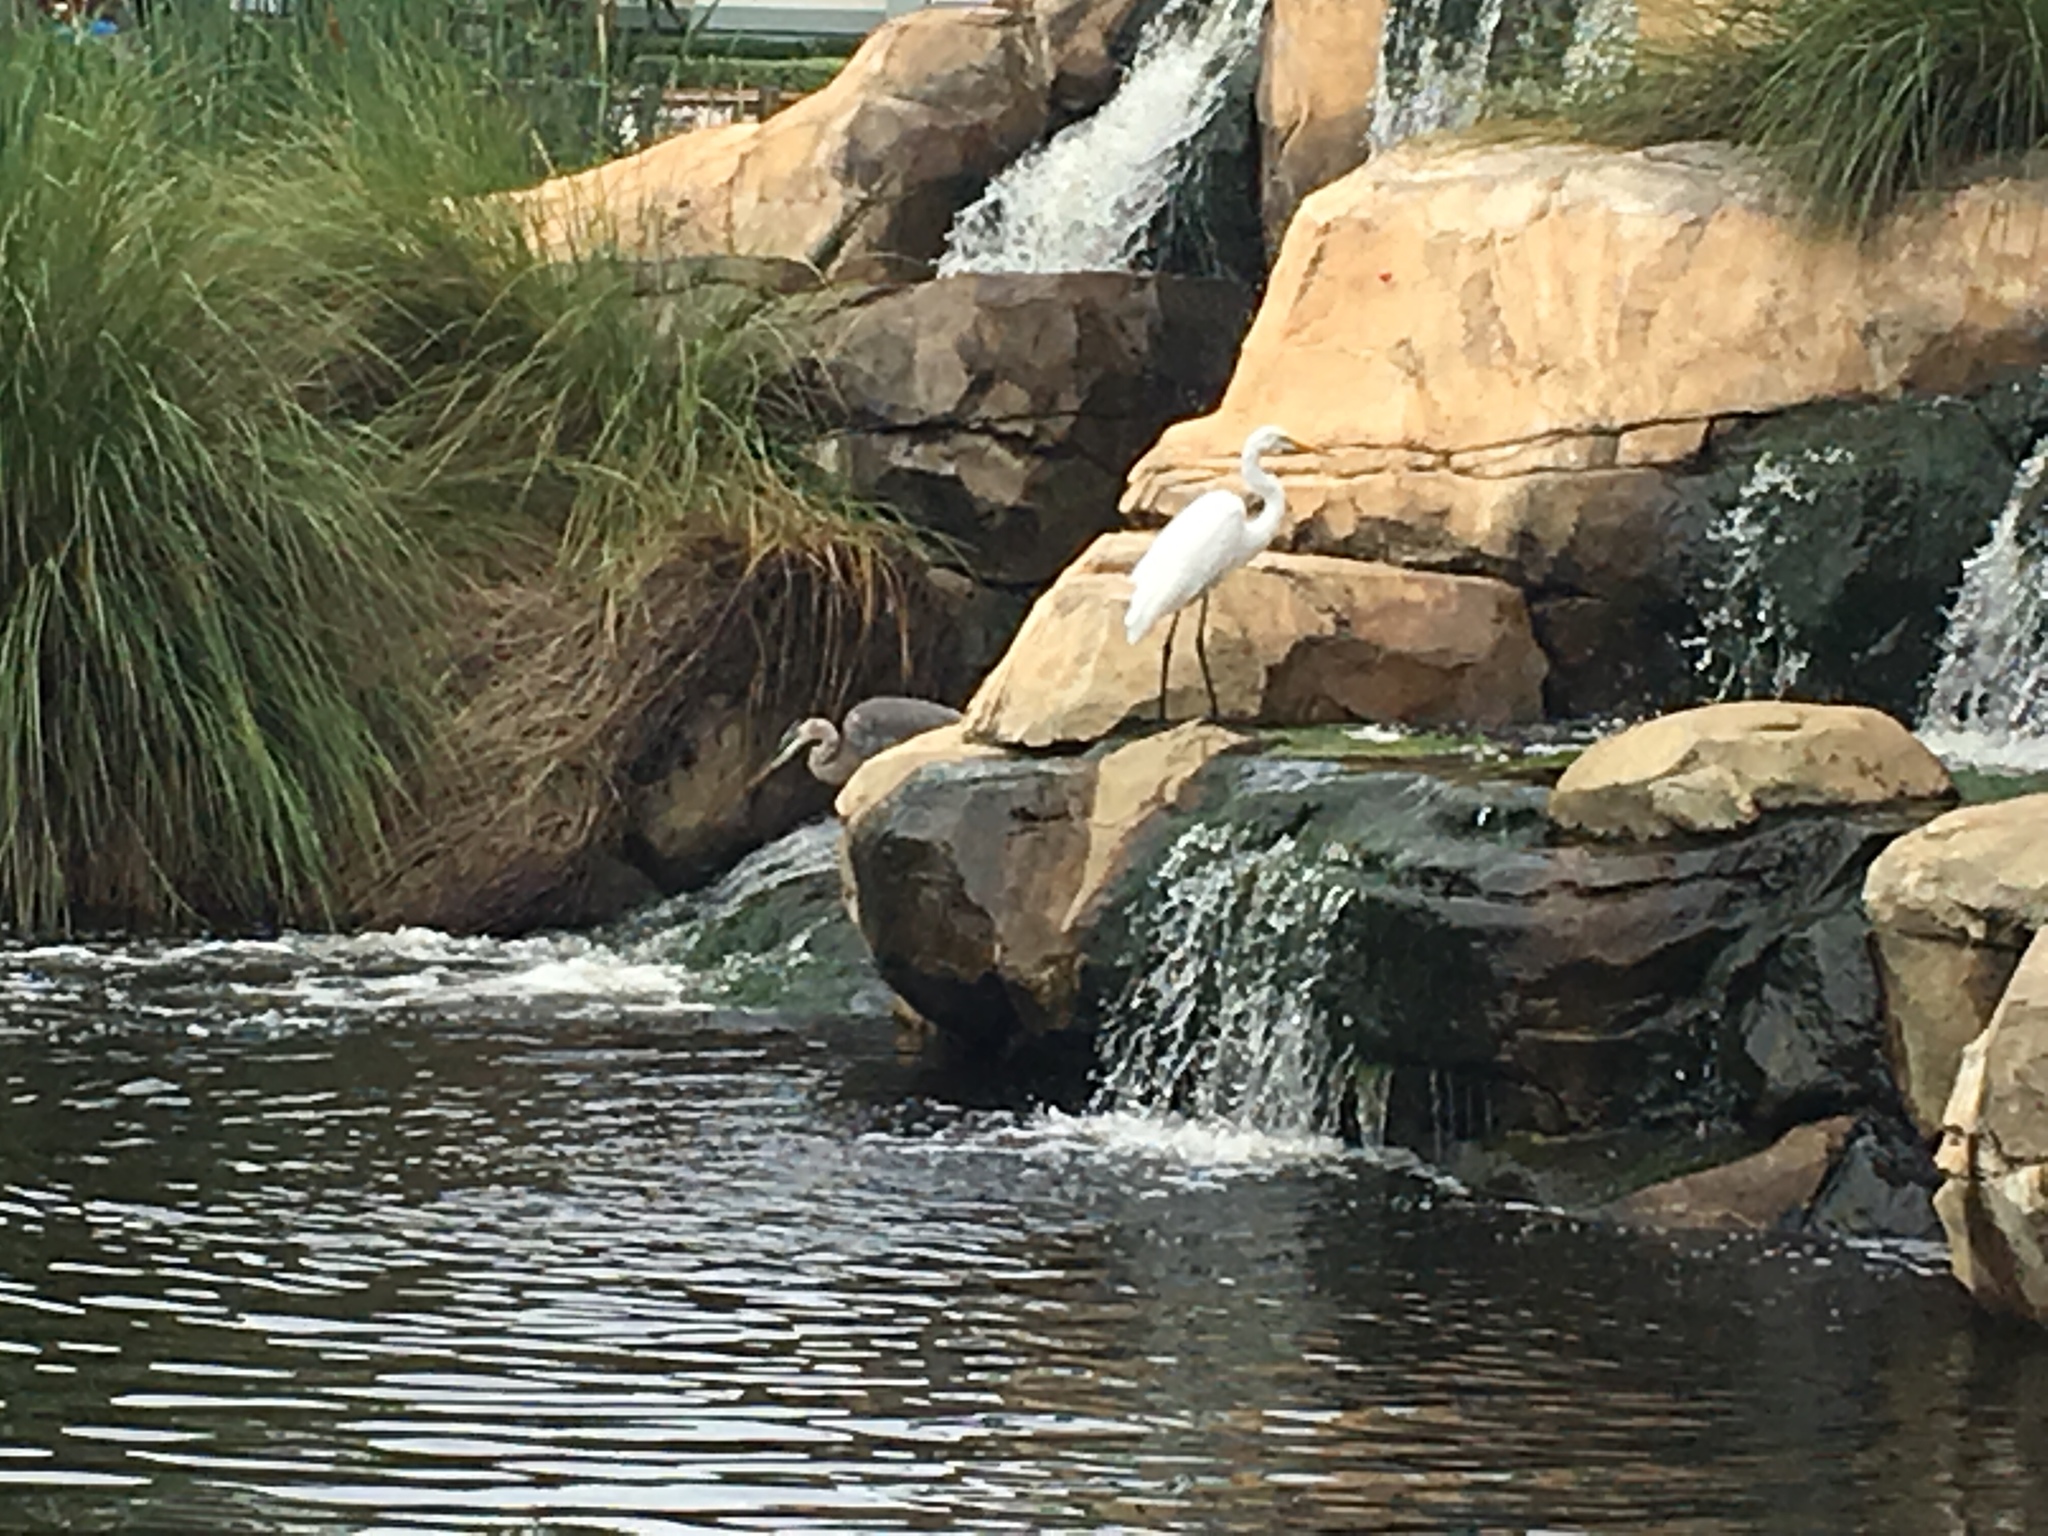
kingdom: Animalia
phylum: Chordata
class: Aves
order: Pelecaniformes
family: Ardeidae
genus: Ardea
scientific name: Ardea herodias
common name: Great blue heron
